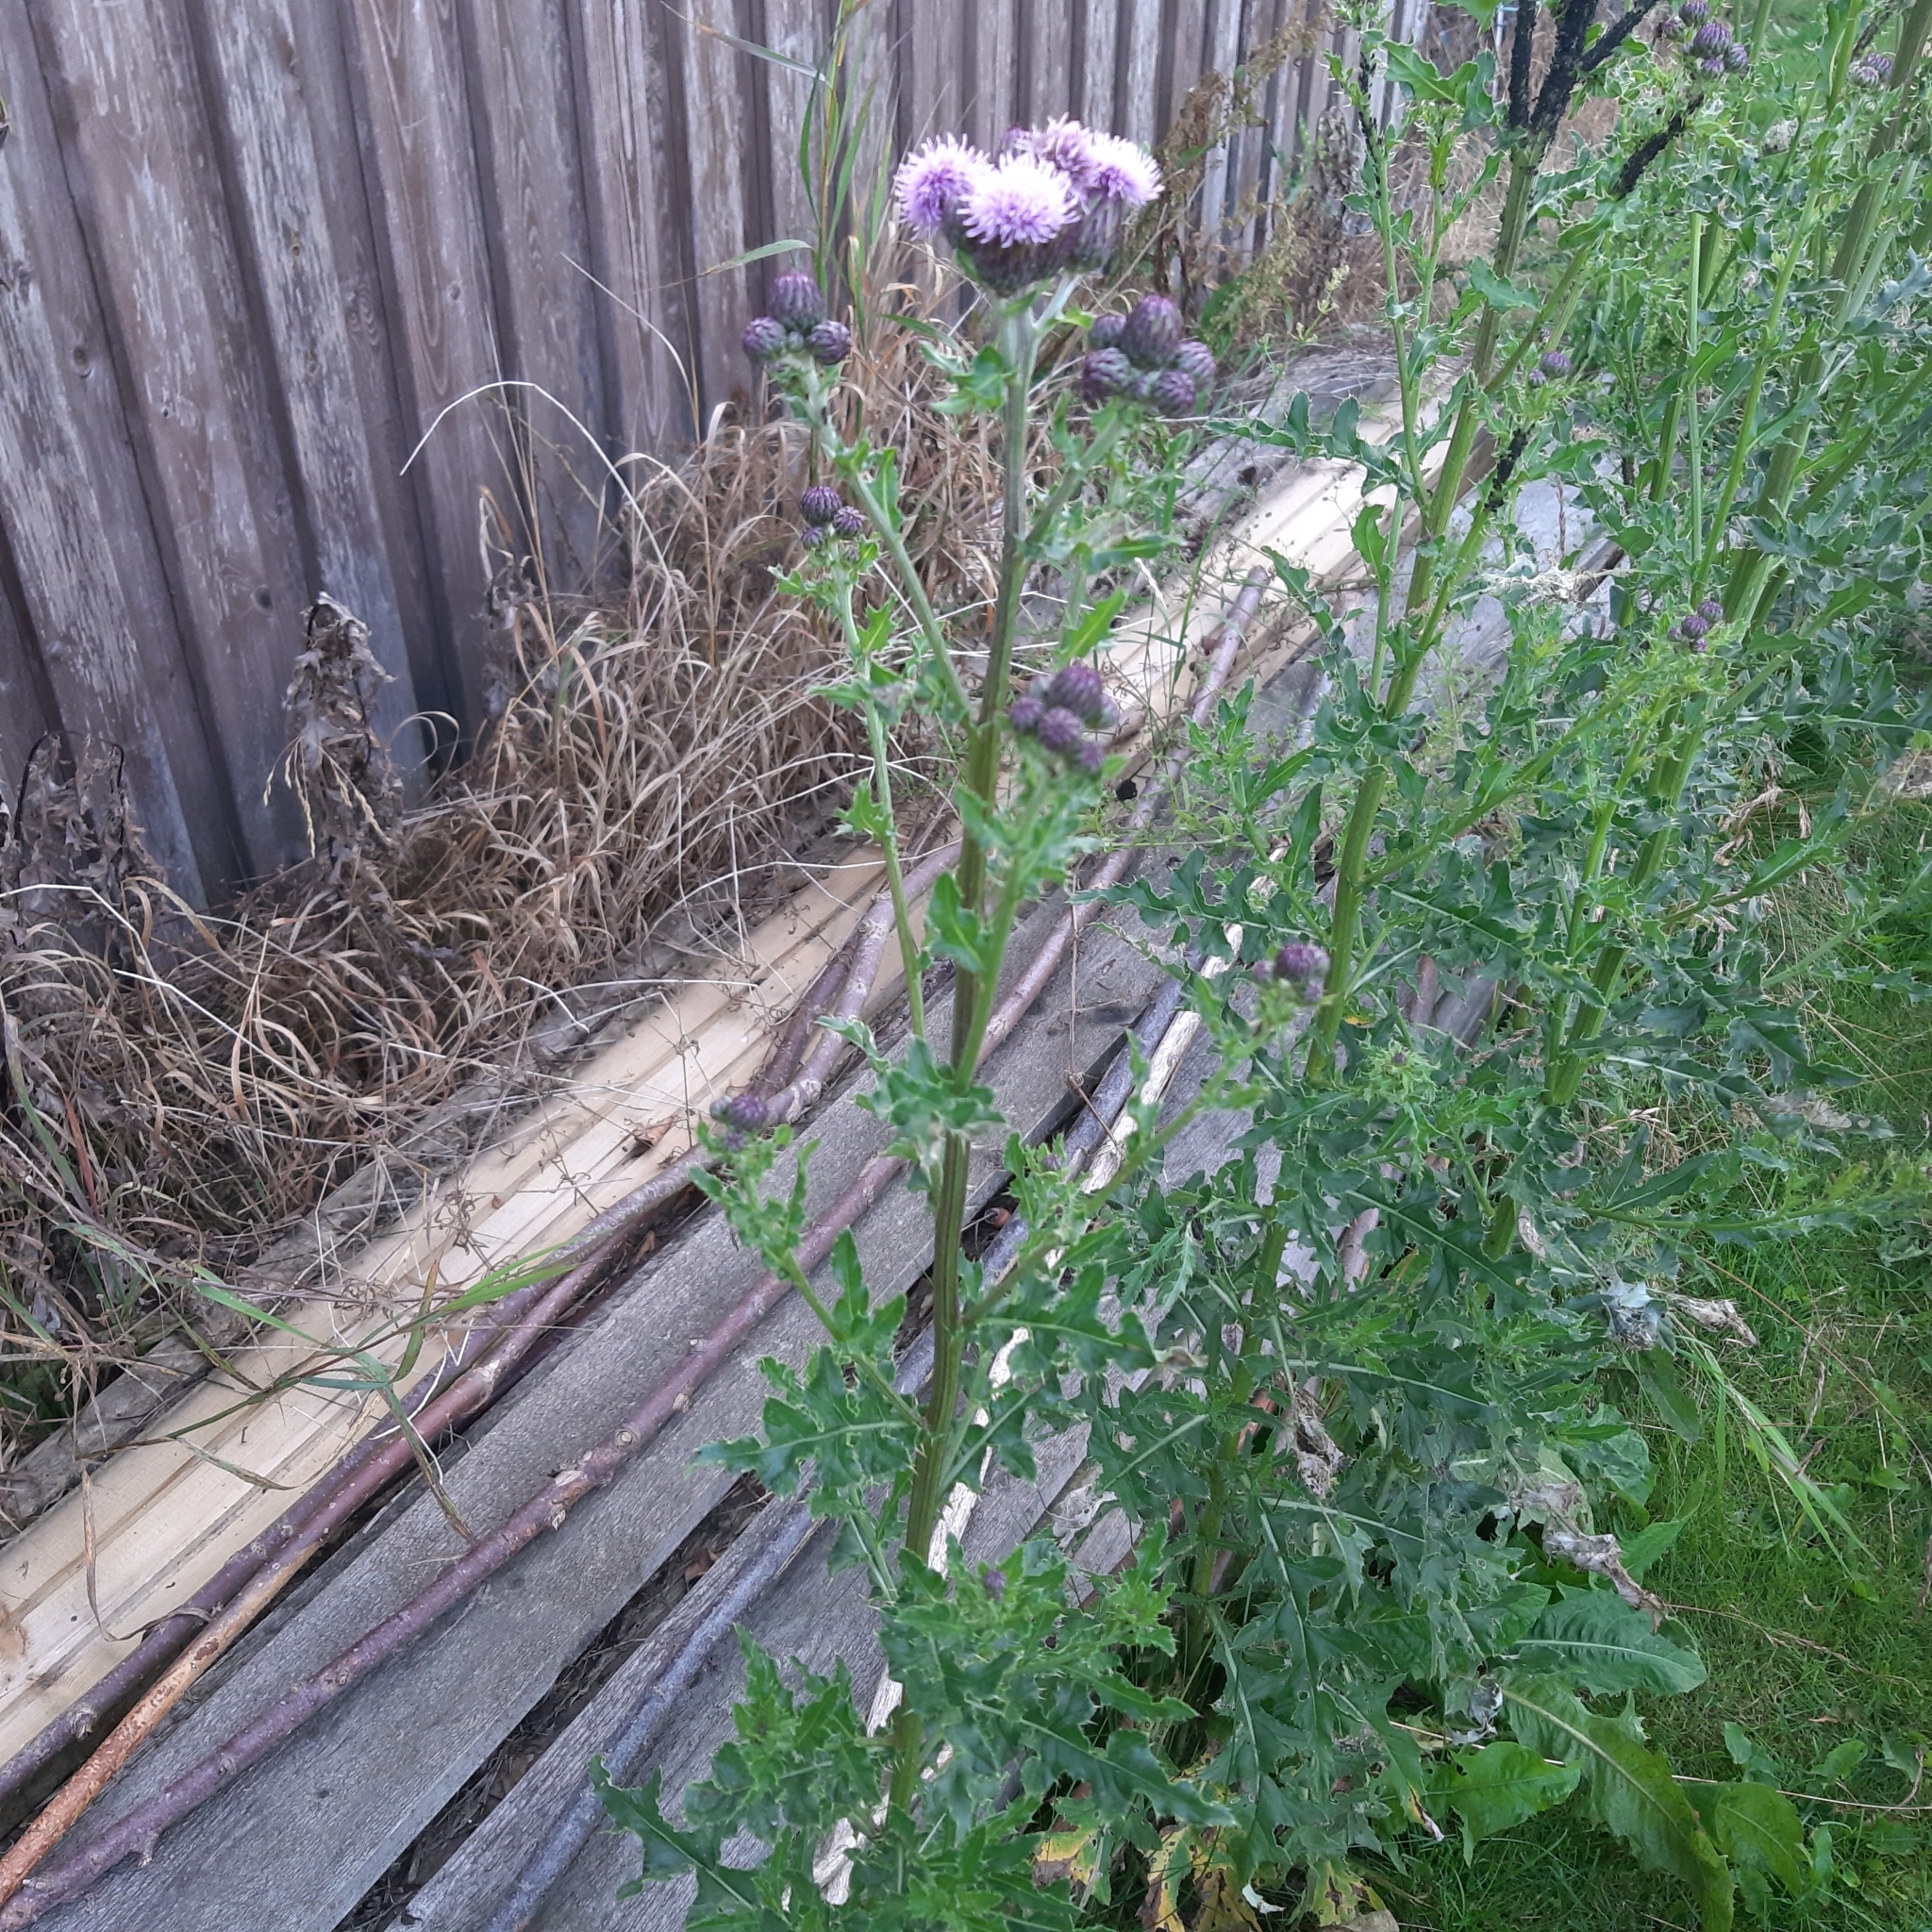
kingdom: Plantae
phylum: Tracheophyta
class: Magnoliopsida
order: Asterales
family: Asteraceae
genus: Cirsium
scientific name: Cirsium arvense
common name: Creeping thistle
